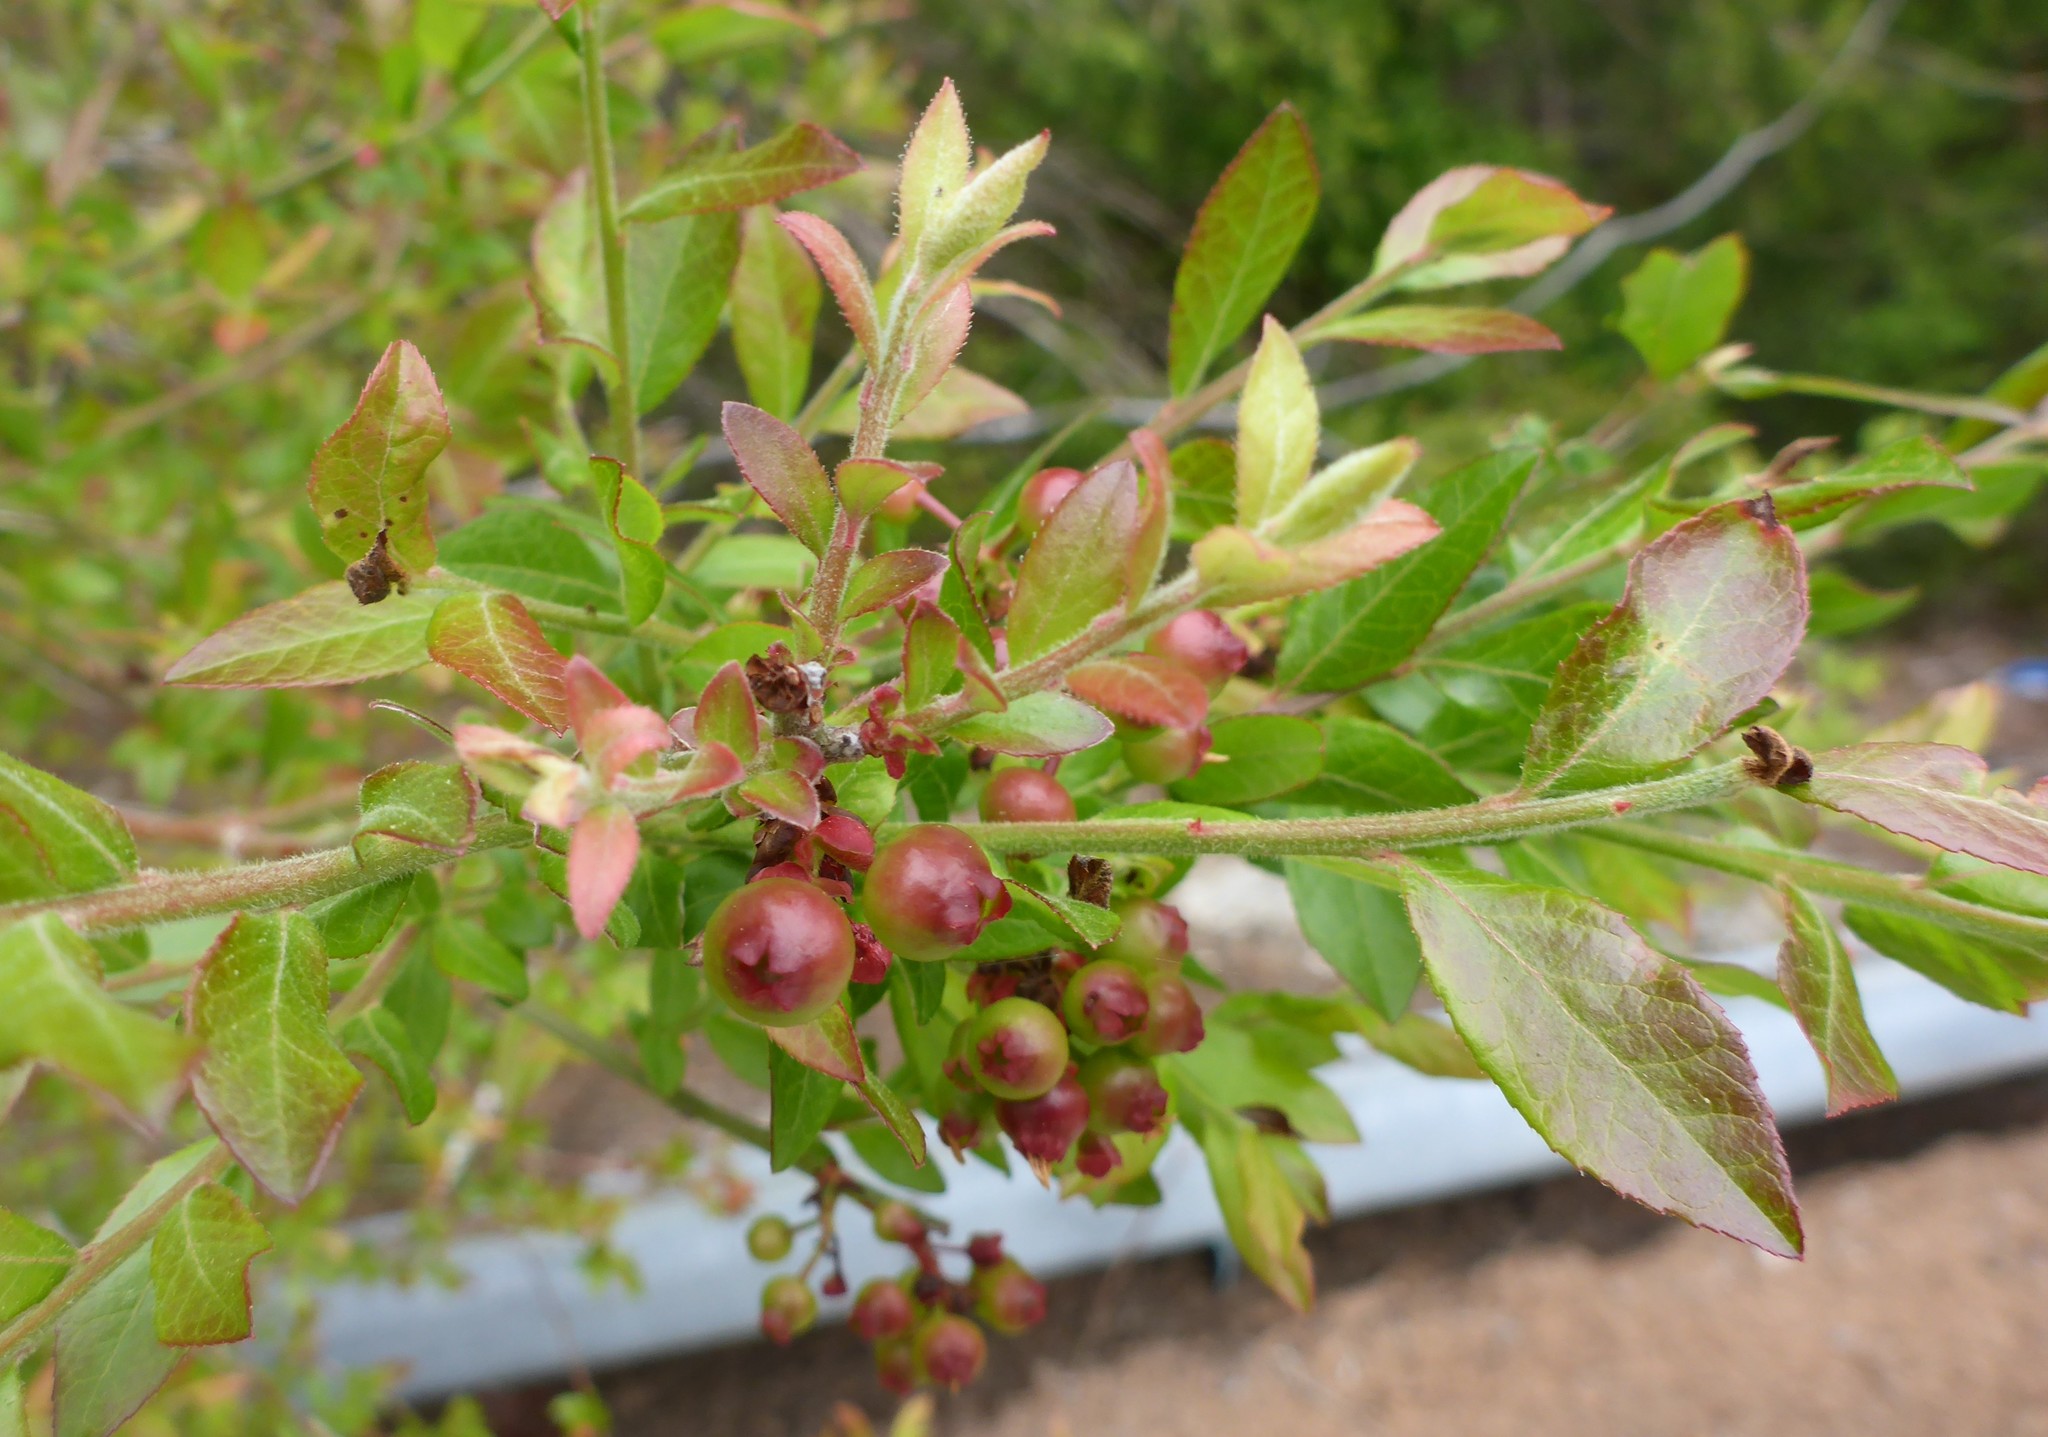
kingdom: Plantae
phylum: Tracheophyta
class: Magnoliopsida
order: Ericales
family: Ericaceae
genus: Vaccinium
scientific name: Vaccinium corymbosum
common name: Blueberry
